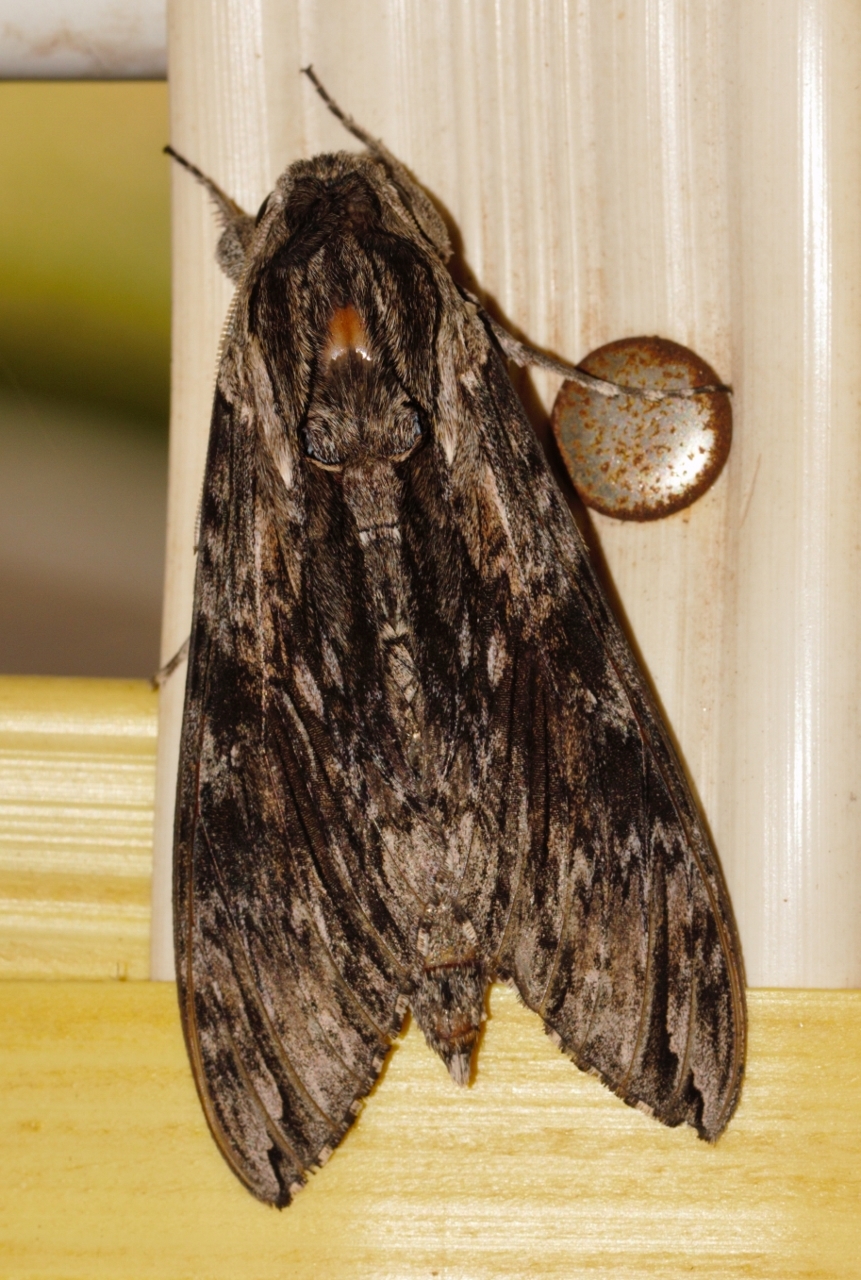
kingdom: Animalia
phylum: Arthropoda
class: Insecta
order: Lepidoptera
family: Sphingidae
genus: Agrius
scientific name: Agrius convolvuli
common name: Convolvulus hawkmoth
